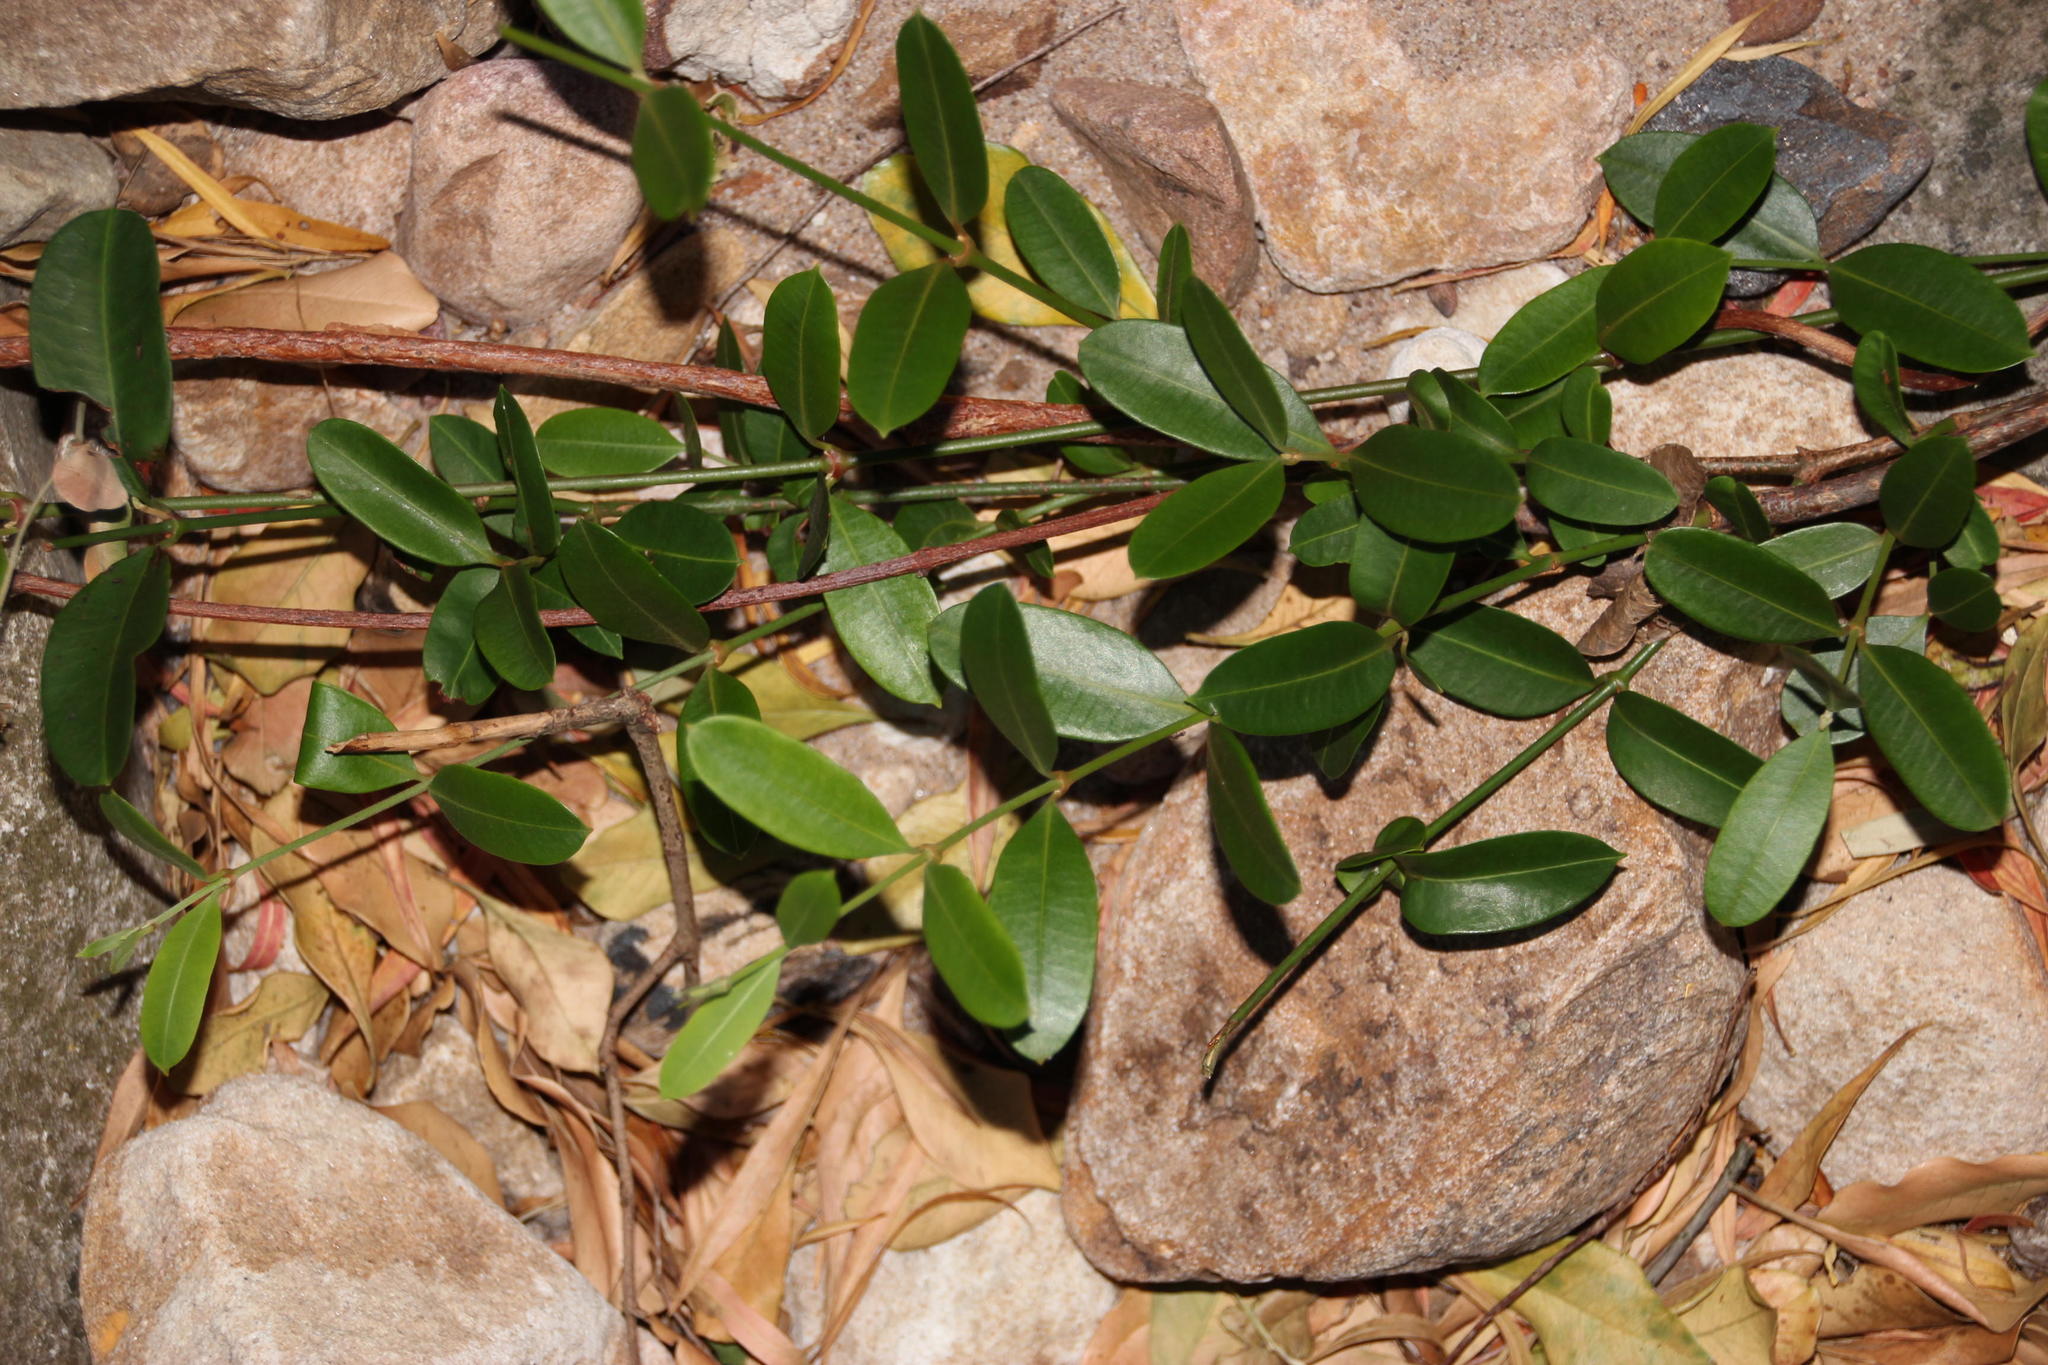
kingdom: Plantae
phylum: Tracheophyta
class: Magnoliopsida
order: Gentianales
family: Apocynaceae
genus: Secamone
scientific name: Secamone alpini
